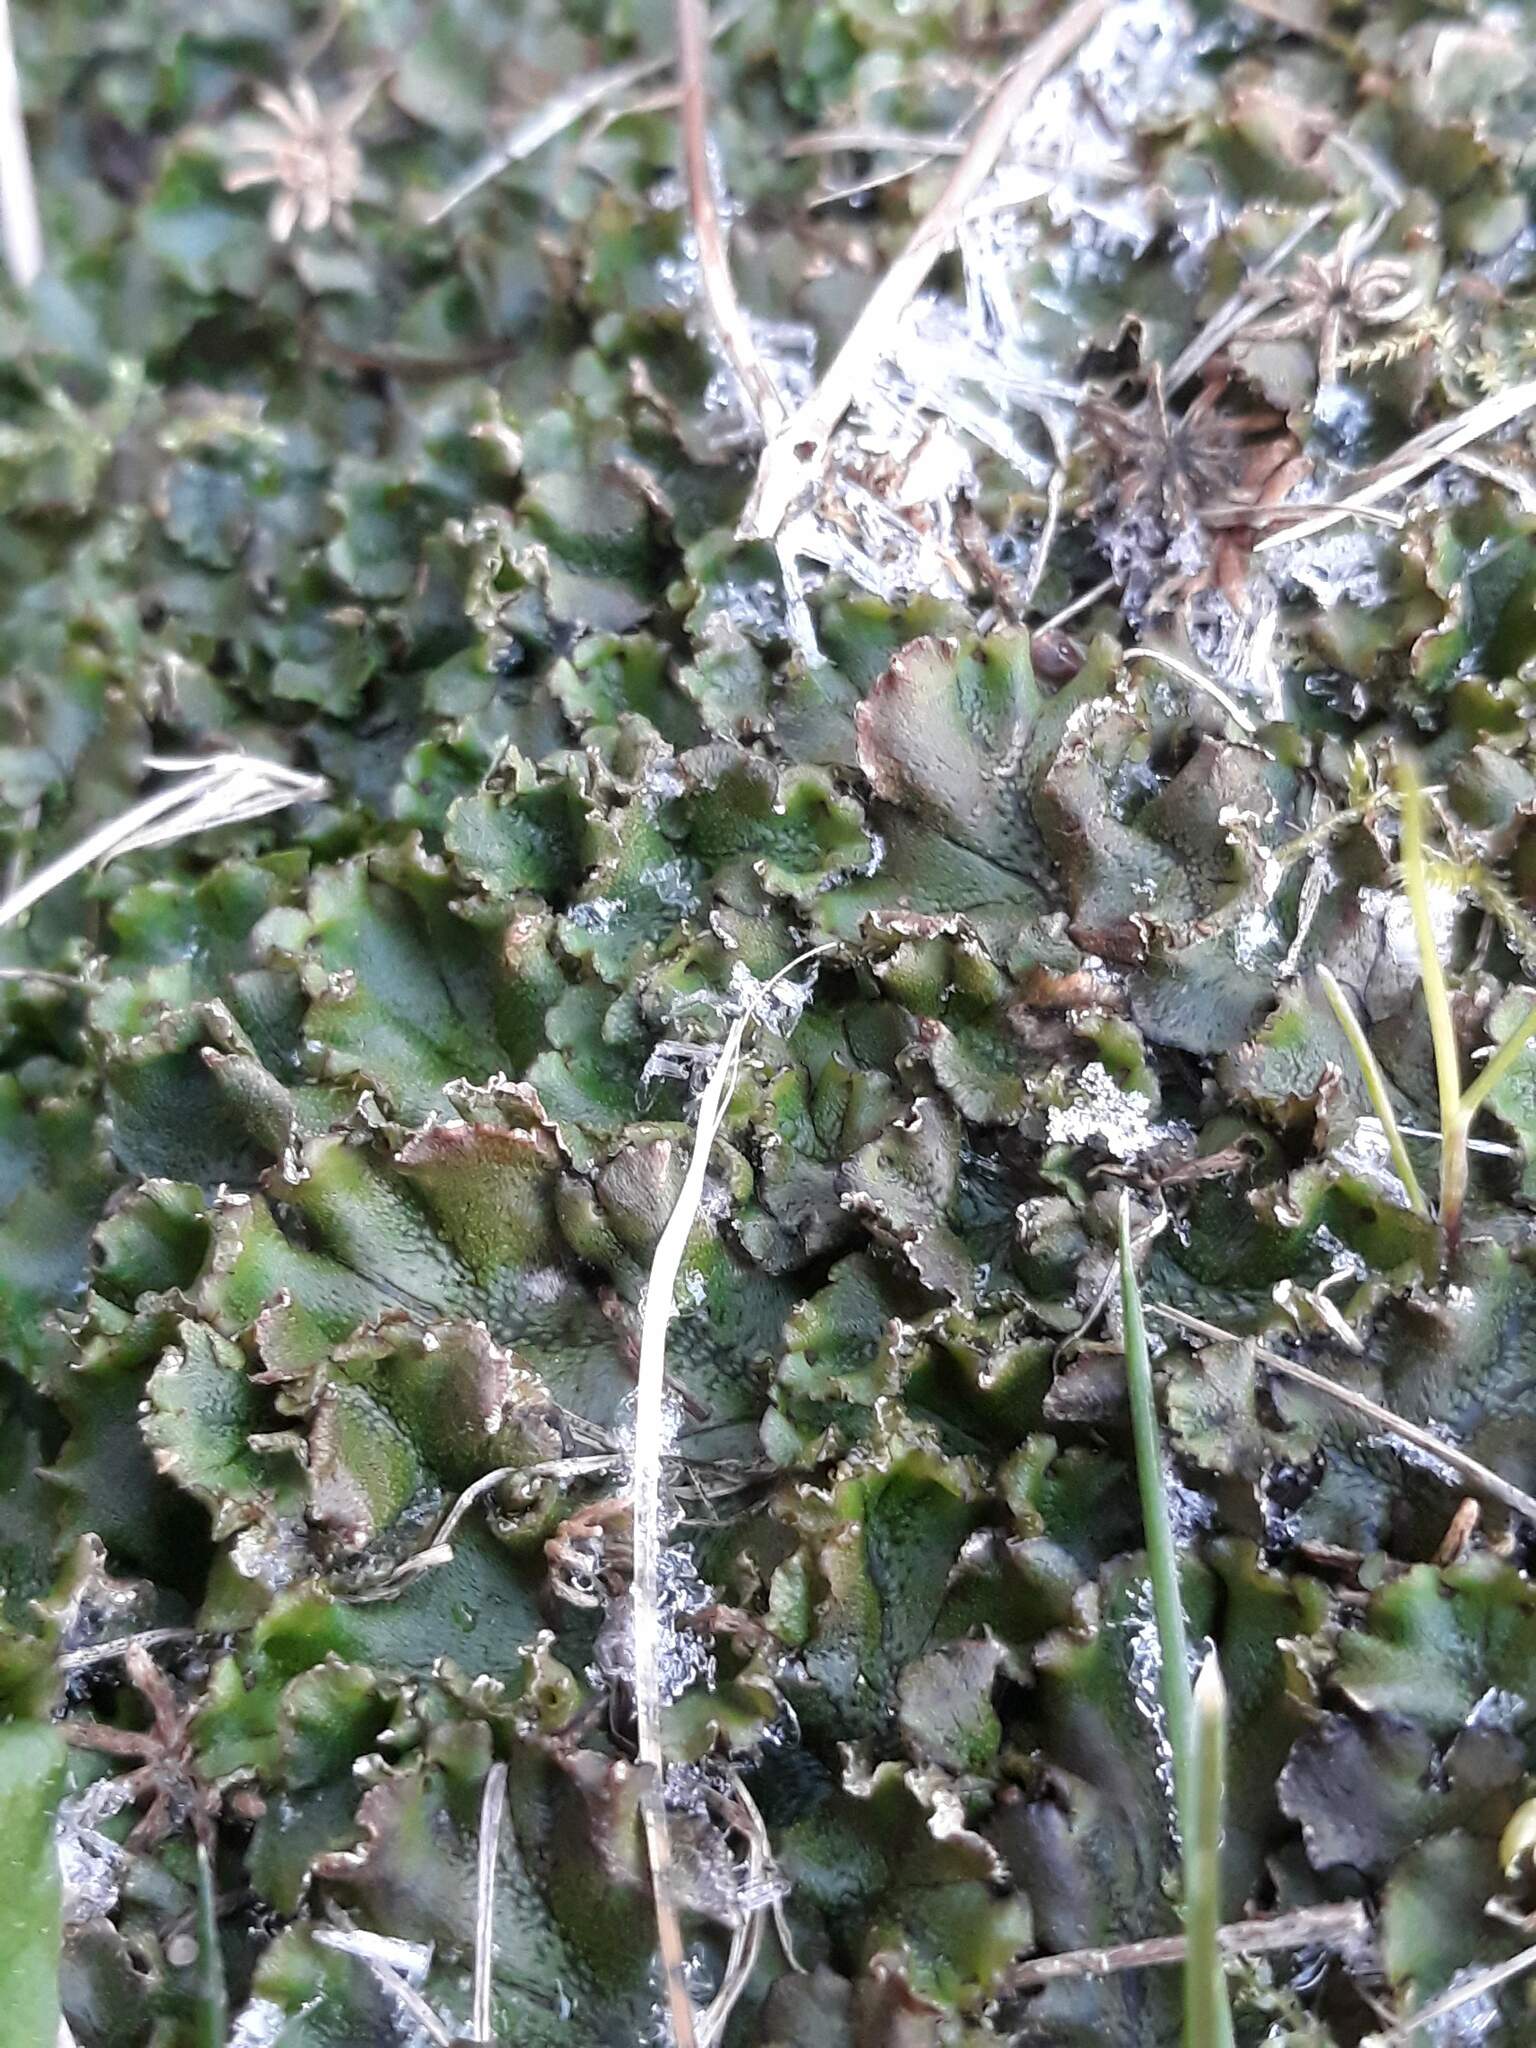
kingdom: Plantae
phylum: Marchantiophyta
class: Marchantiopsida
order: Marchantiales
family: Marchantiaceae
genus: Marchantia
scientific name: Marchantia polymorpha
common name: Common liverwort
